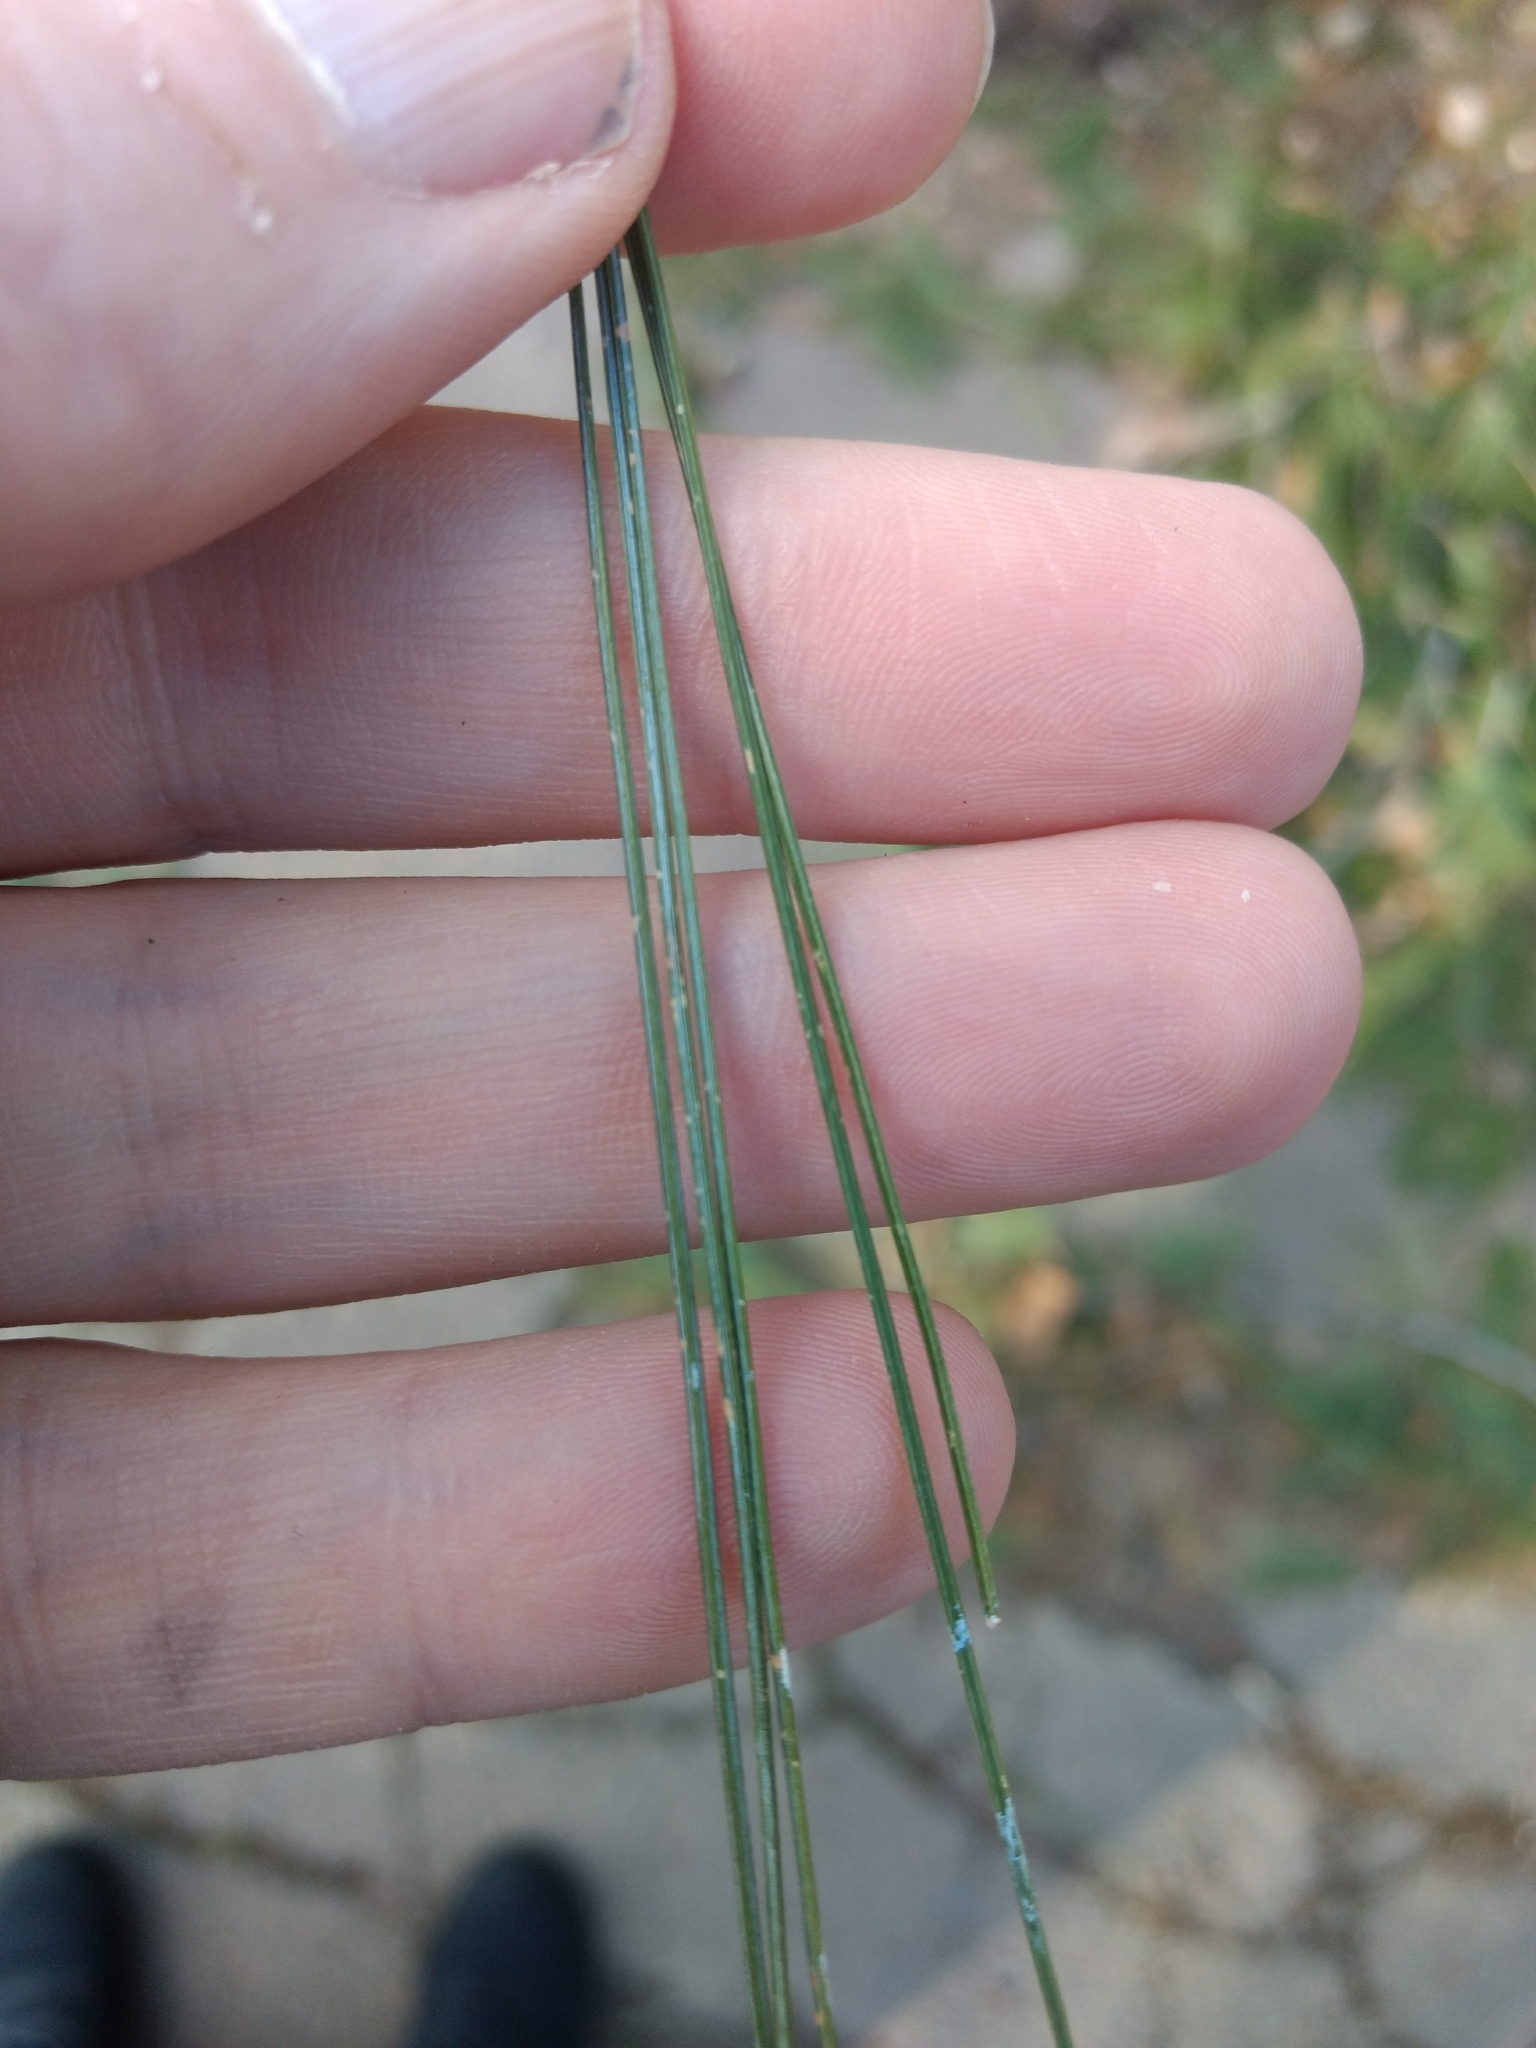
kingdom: Plantae
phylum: Tracheophyta
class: Pinopsida
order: Pinales
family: Pinaceae
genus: Pinus
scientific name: Pinus strobus
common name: Weymouth pine
